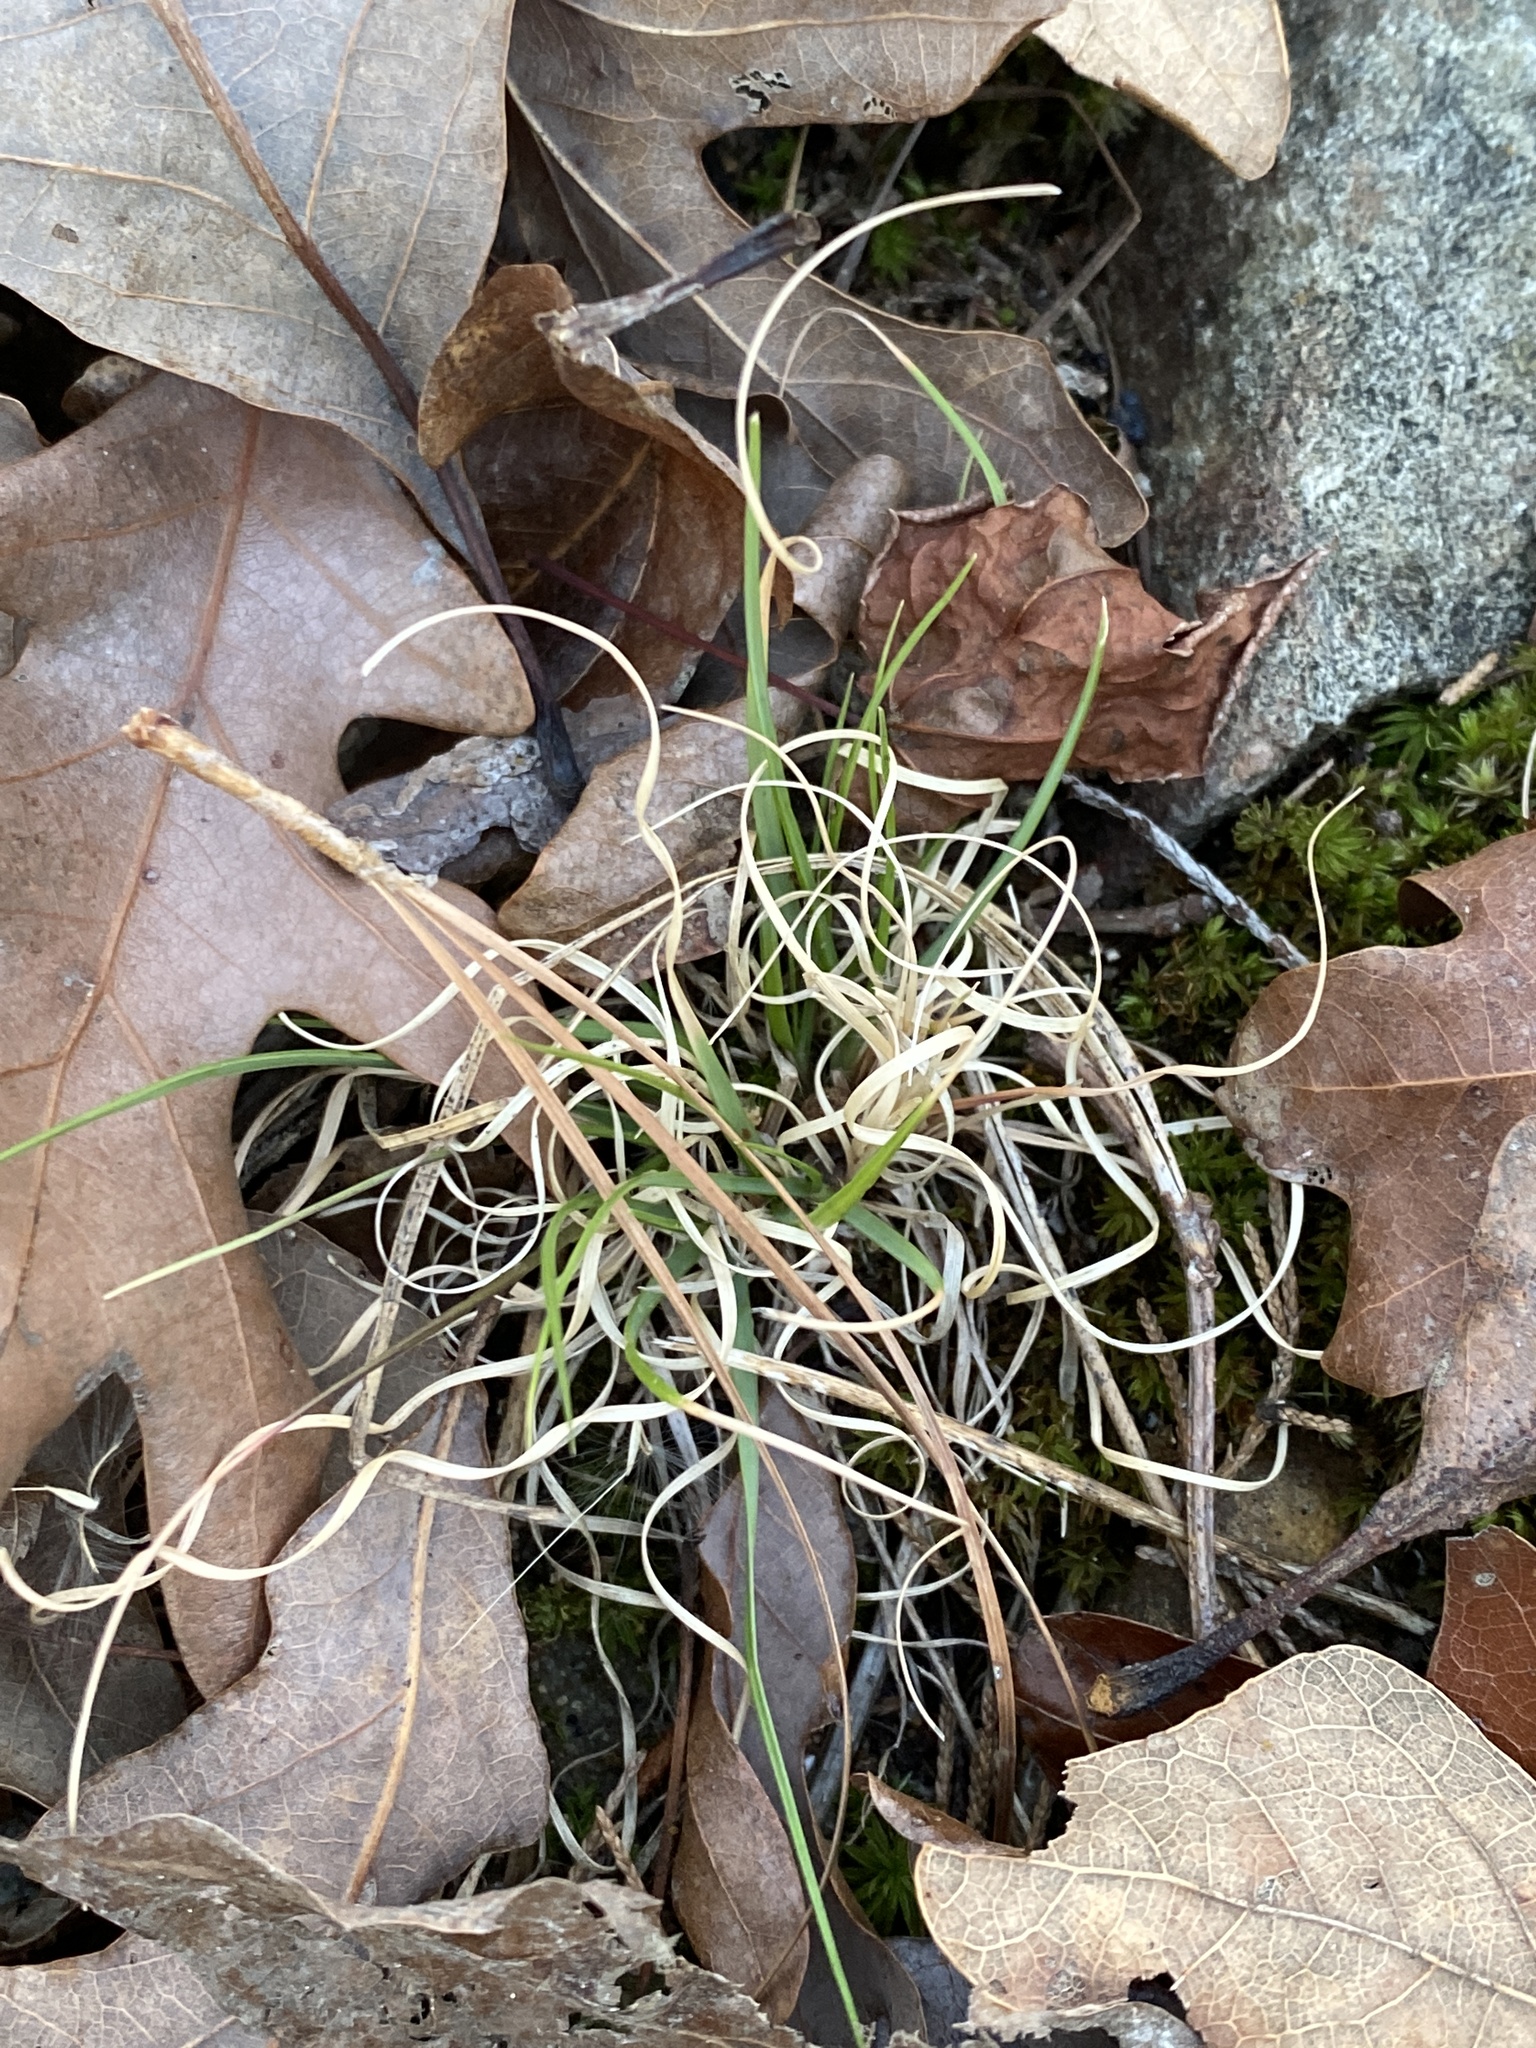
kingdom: Plantae
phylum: Tracheophyta
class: Liliopsida
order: Poales
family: Poaceae
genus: Danthonia
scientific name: Danthonia spicata
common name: Common wild oatgrass
